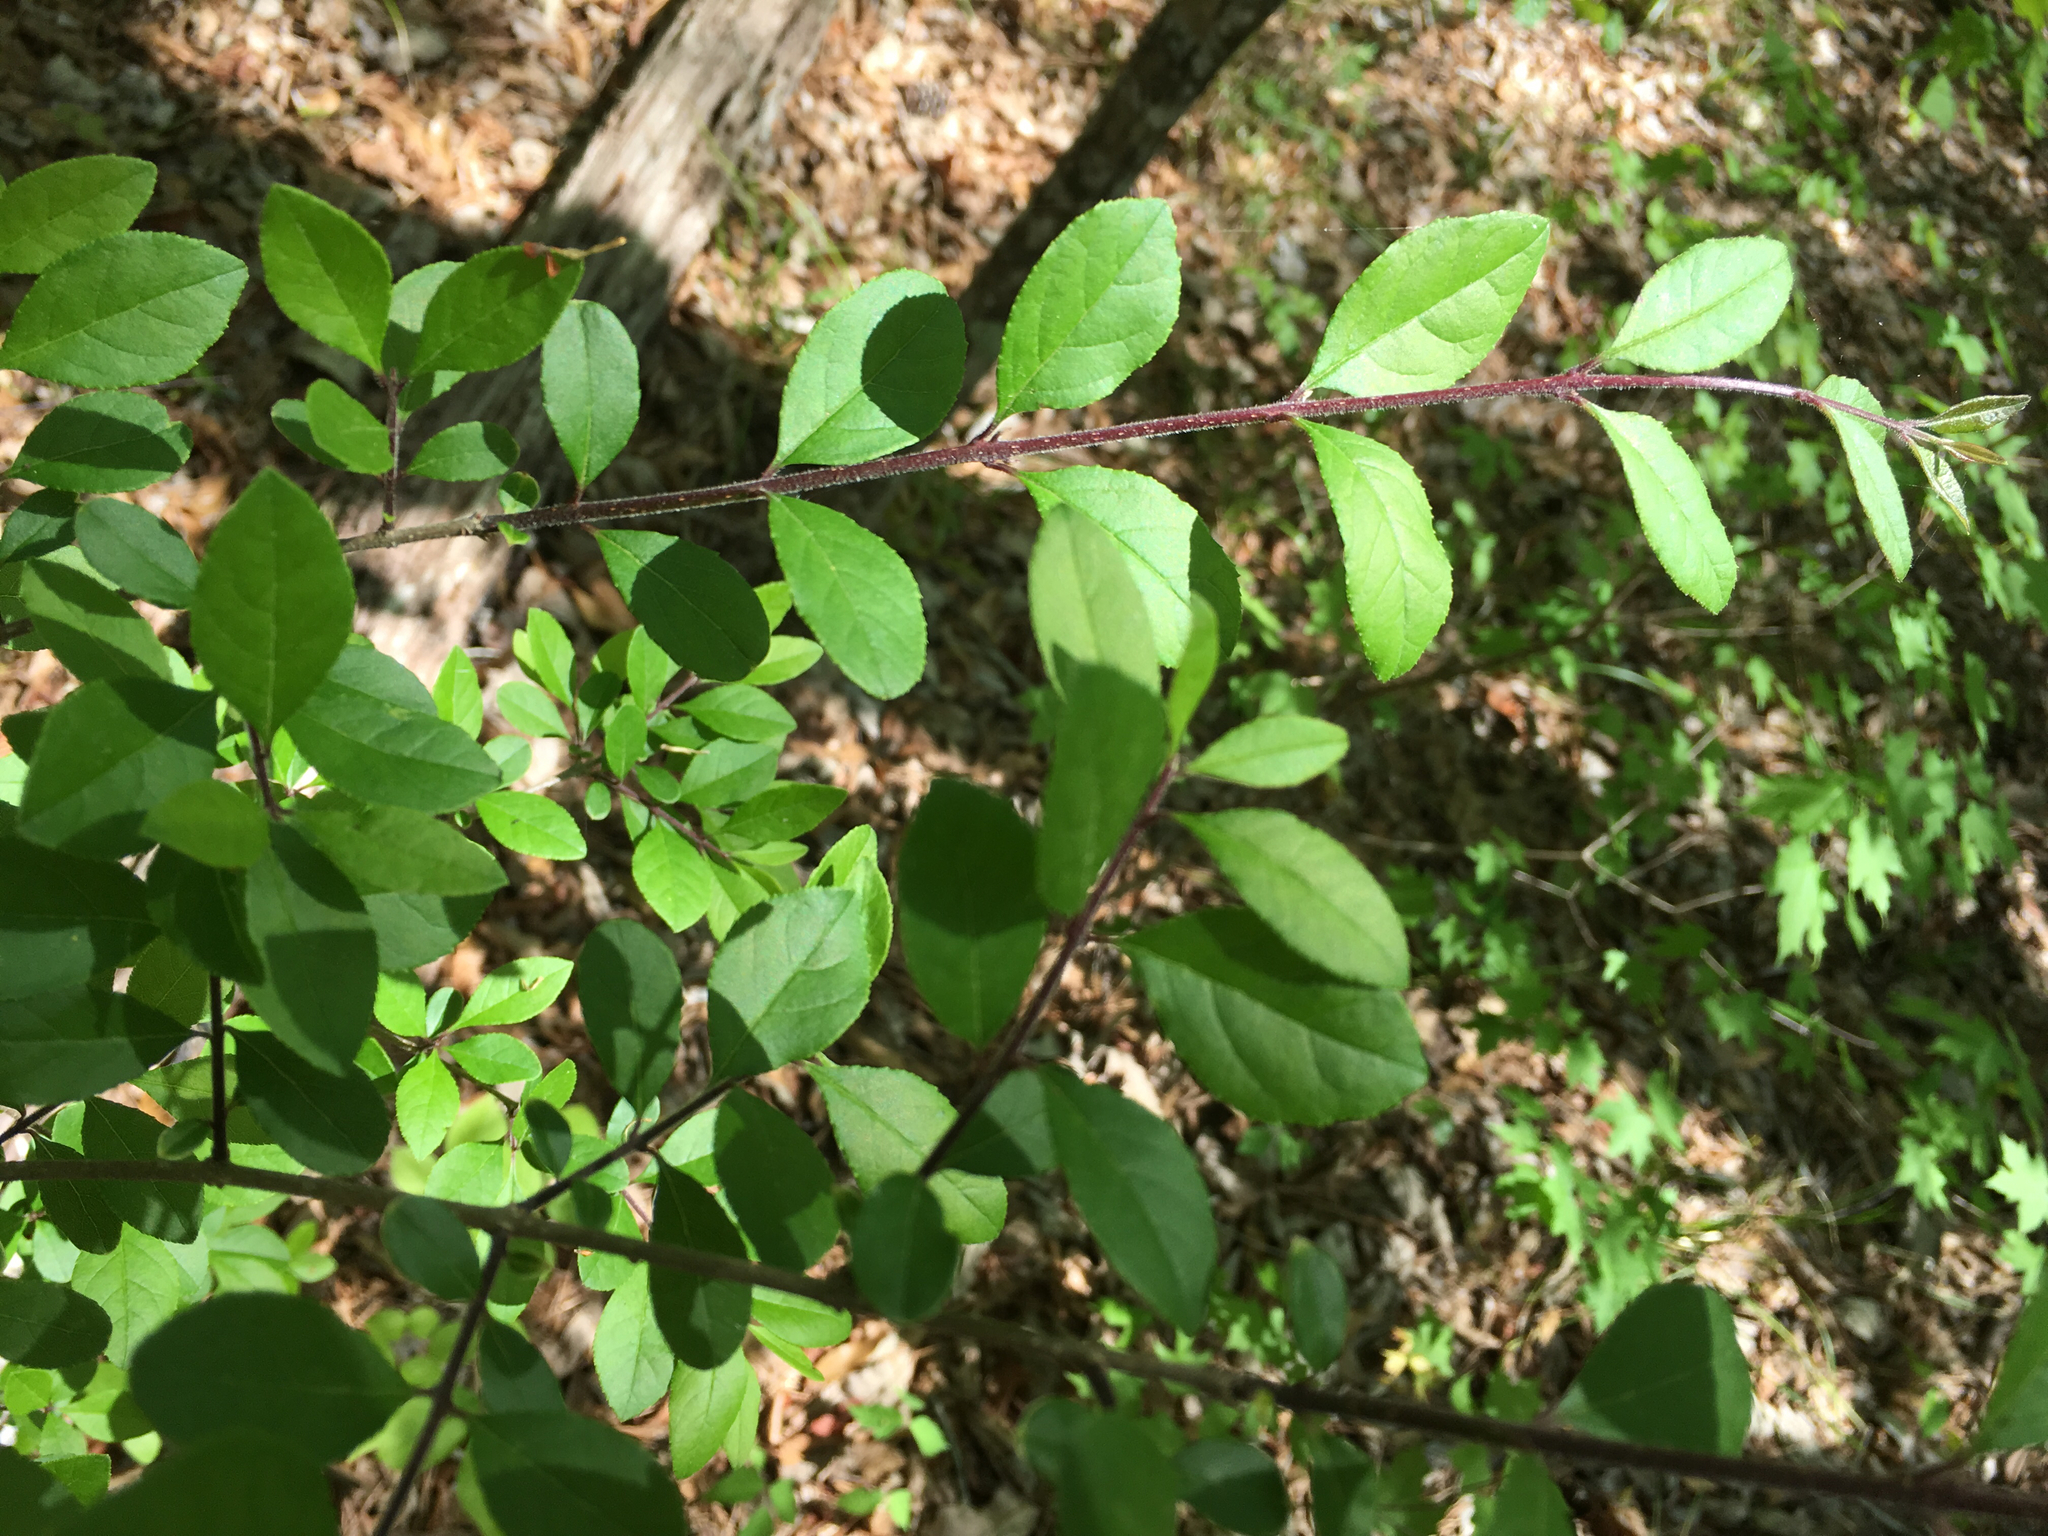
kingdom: Plantae
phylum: Tracheophyta
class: Magnoliopsida
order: Lamiales
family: Oleaceae
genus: Forestiera
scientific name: Forestiera ligustrina
